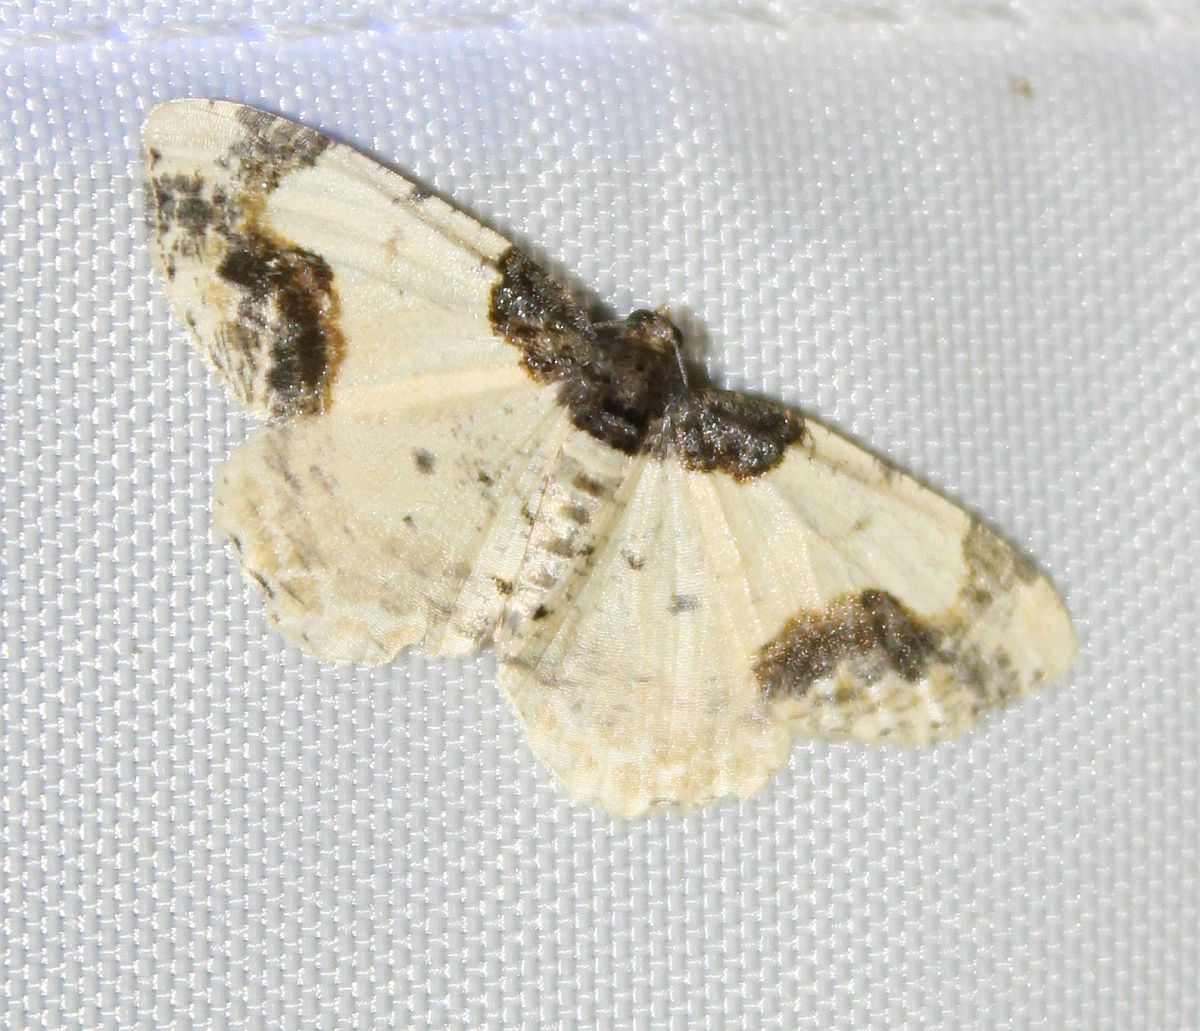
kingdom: Animalia
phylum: Arthropoda
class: Insecta
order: Lepidoptera
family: Geometridae
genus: Ligdia
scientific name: Ligdia adustata
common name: Scorched carpet
